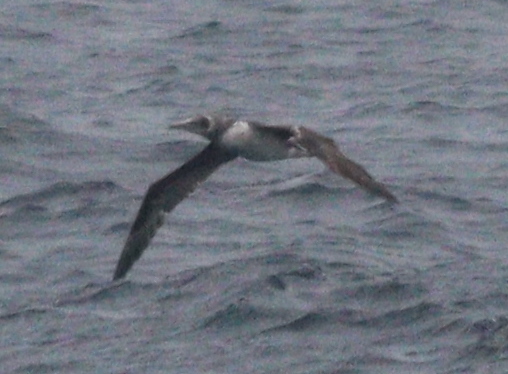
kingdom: Animalia
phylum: Chordata
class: Aves
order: Suliformes
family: Sulidae
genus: Morus
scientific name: Morus bassanus
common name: Northern gannet
